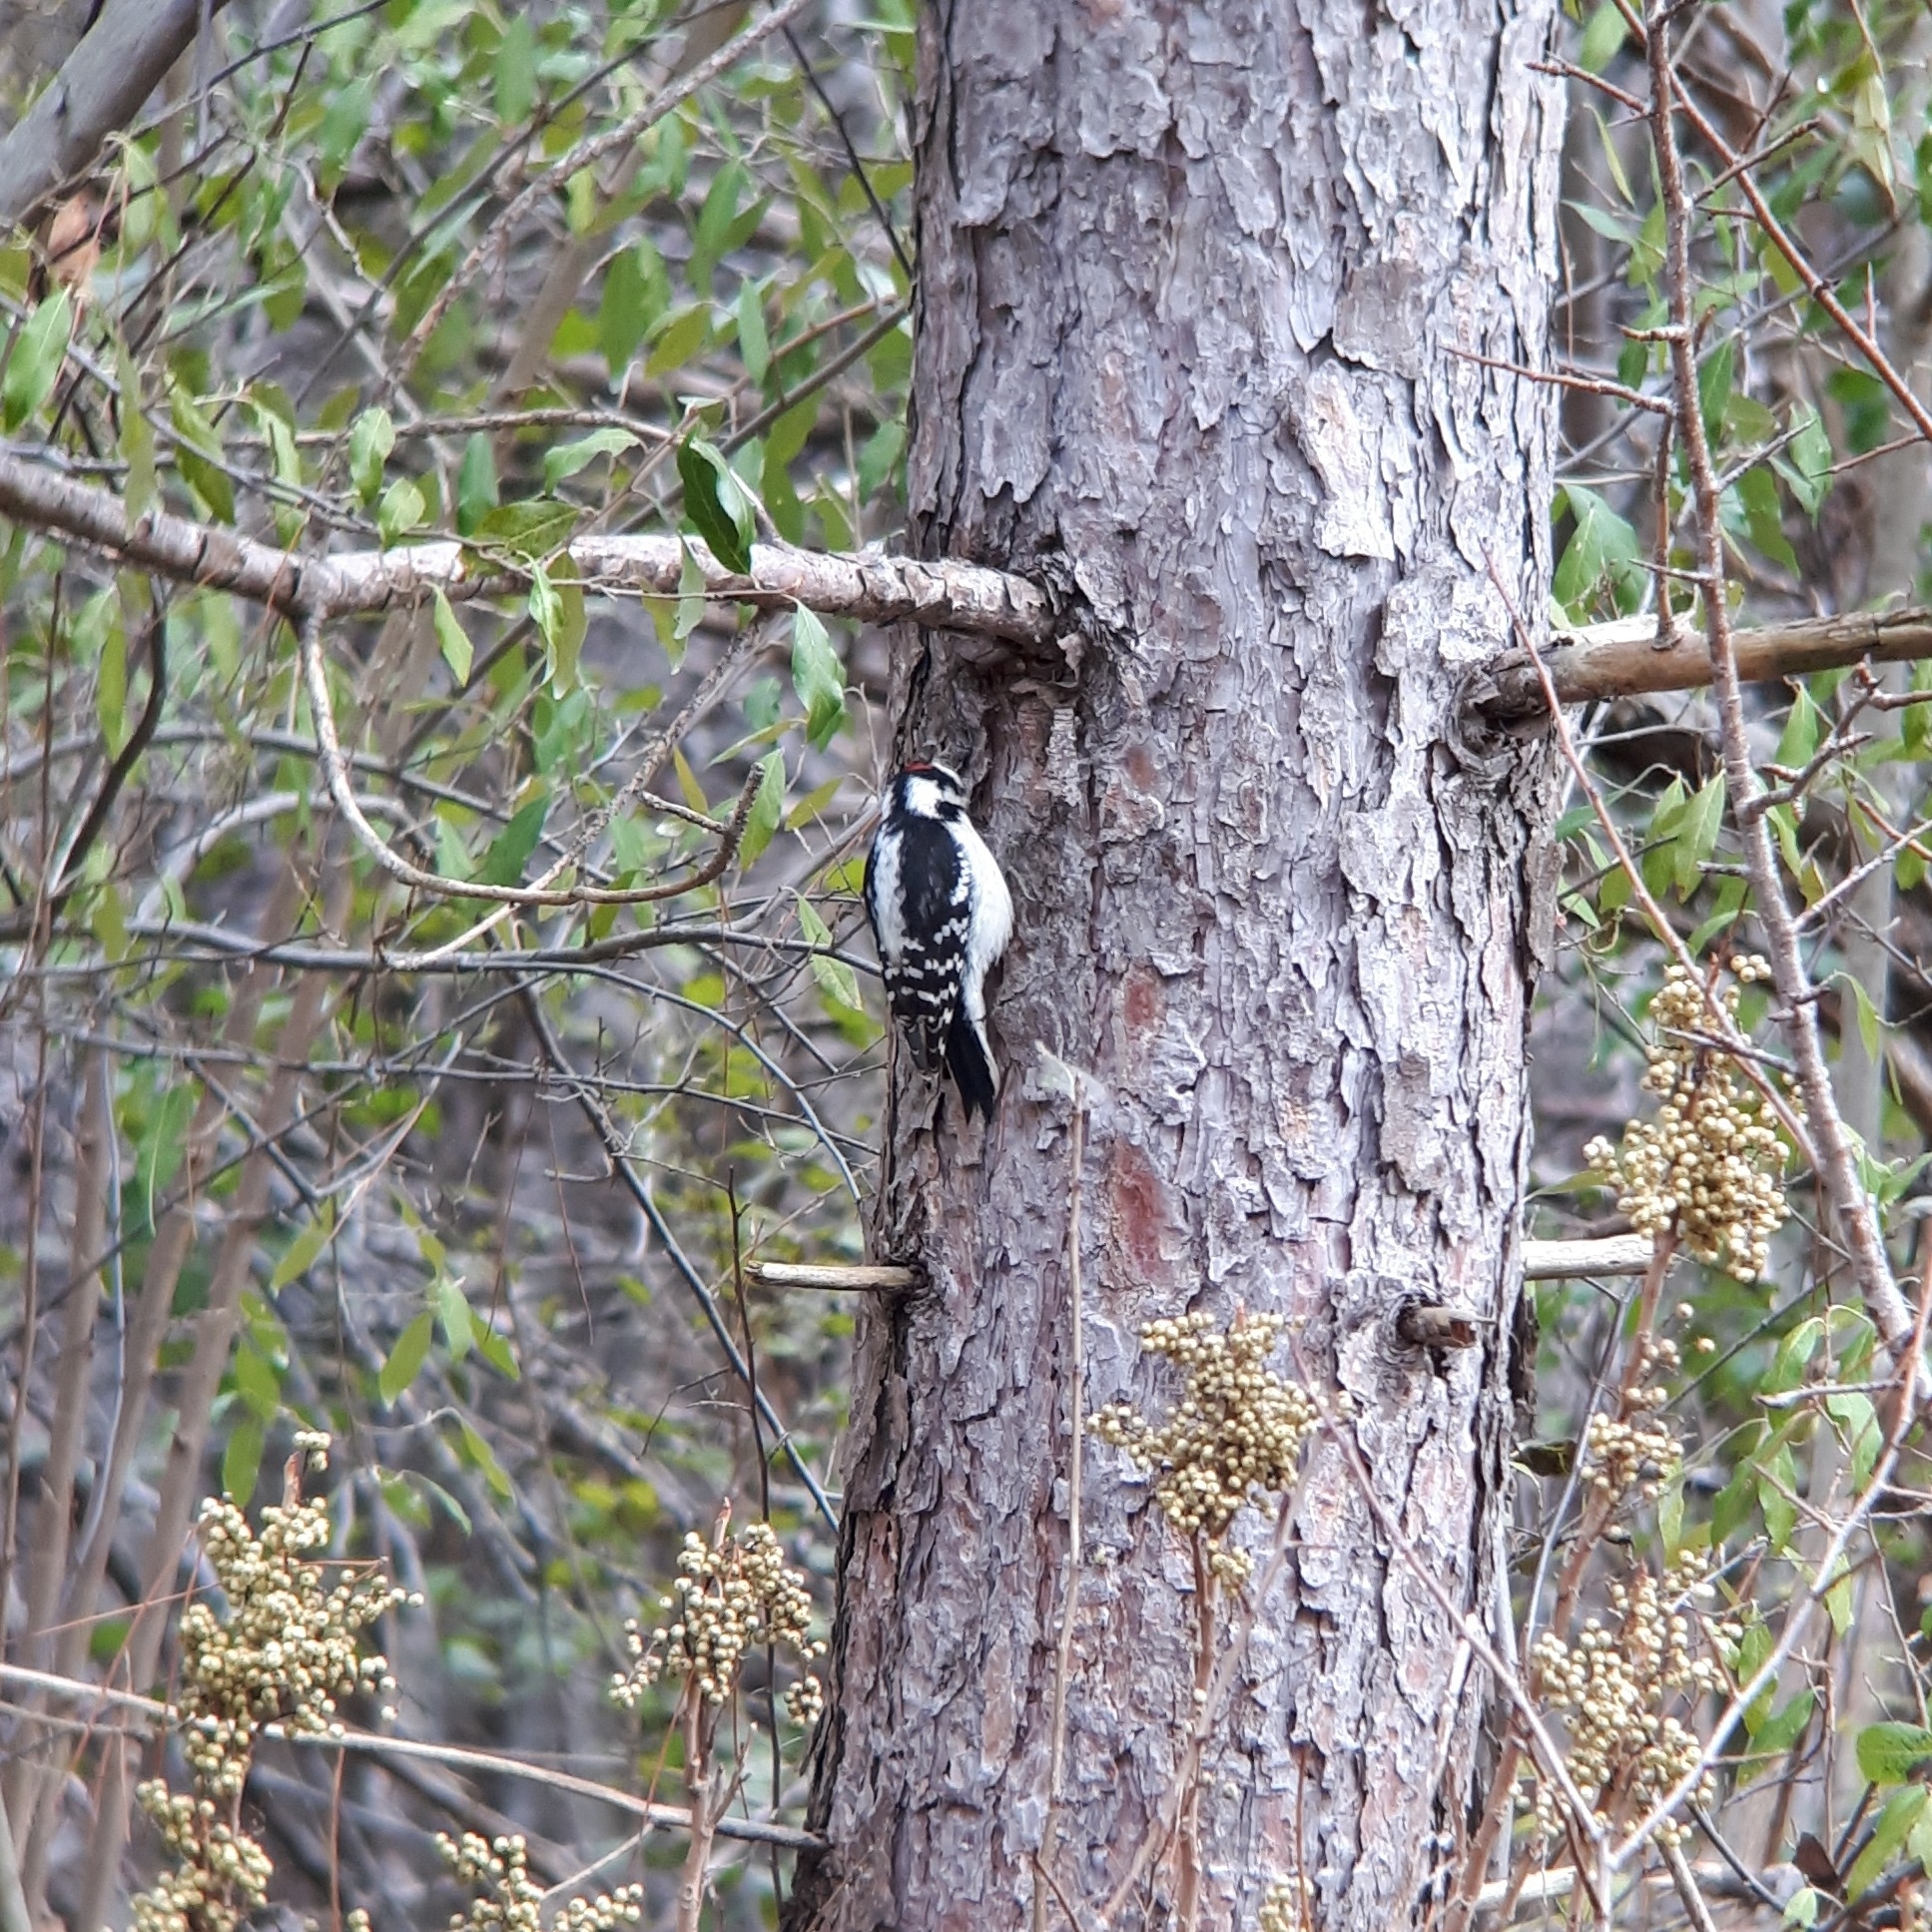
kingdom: Animalia
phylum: Chordata
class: Aves
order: Piciformes
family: Picidae
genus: Dryobates
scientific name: Dryobates pubescens
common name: Downy woodpecker
